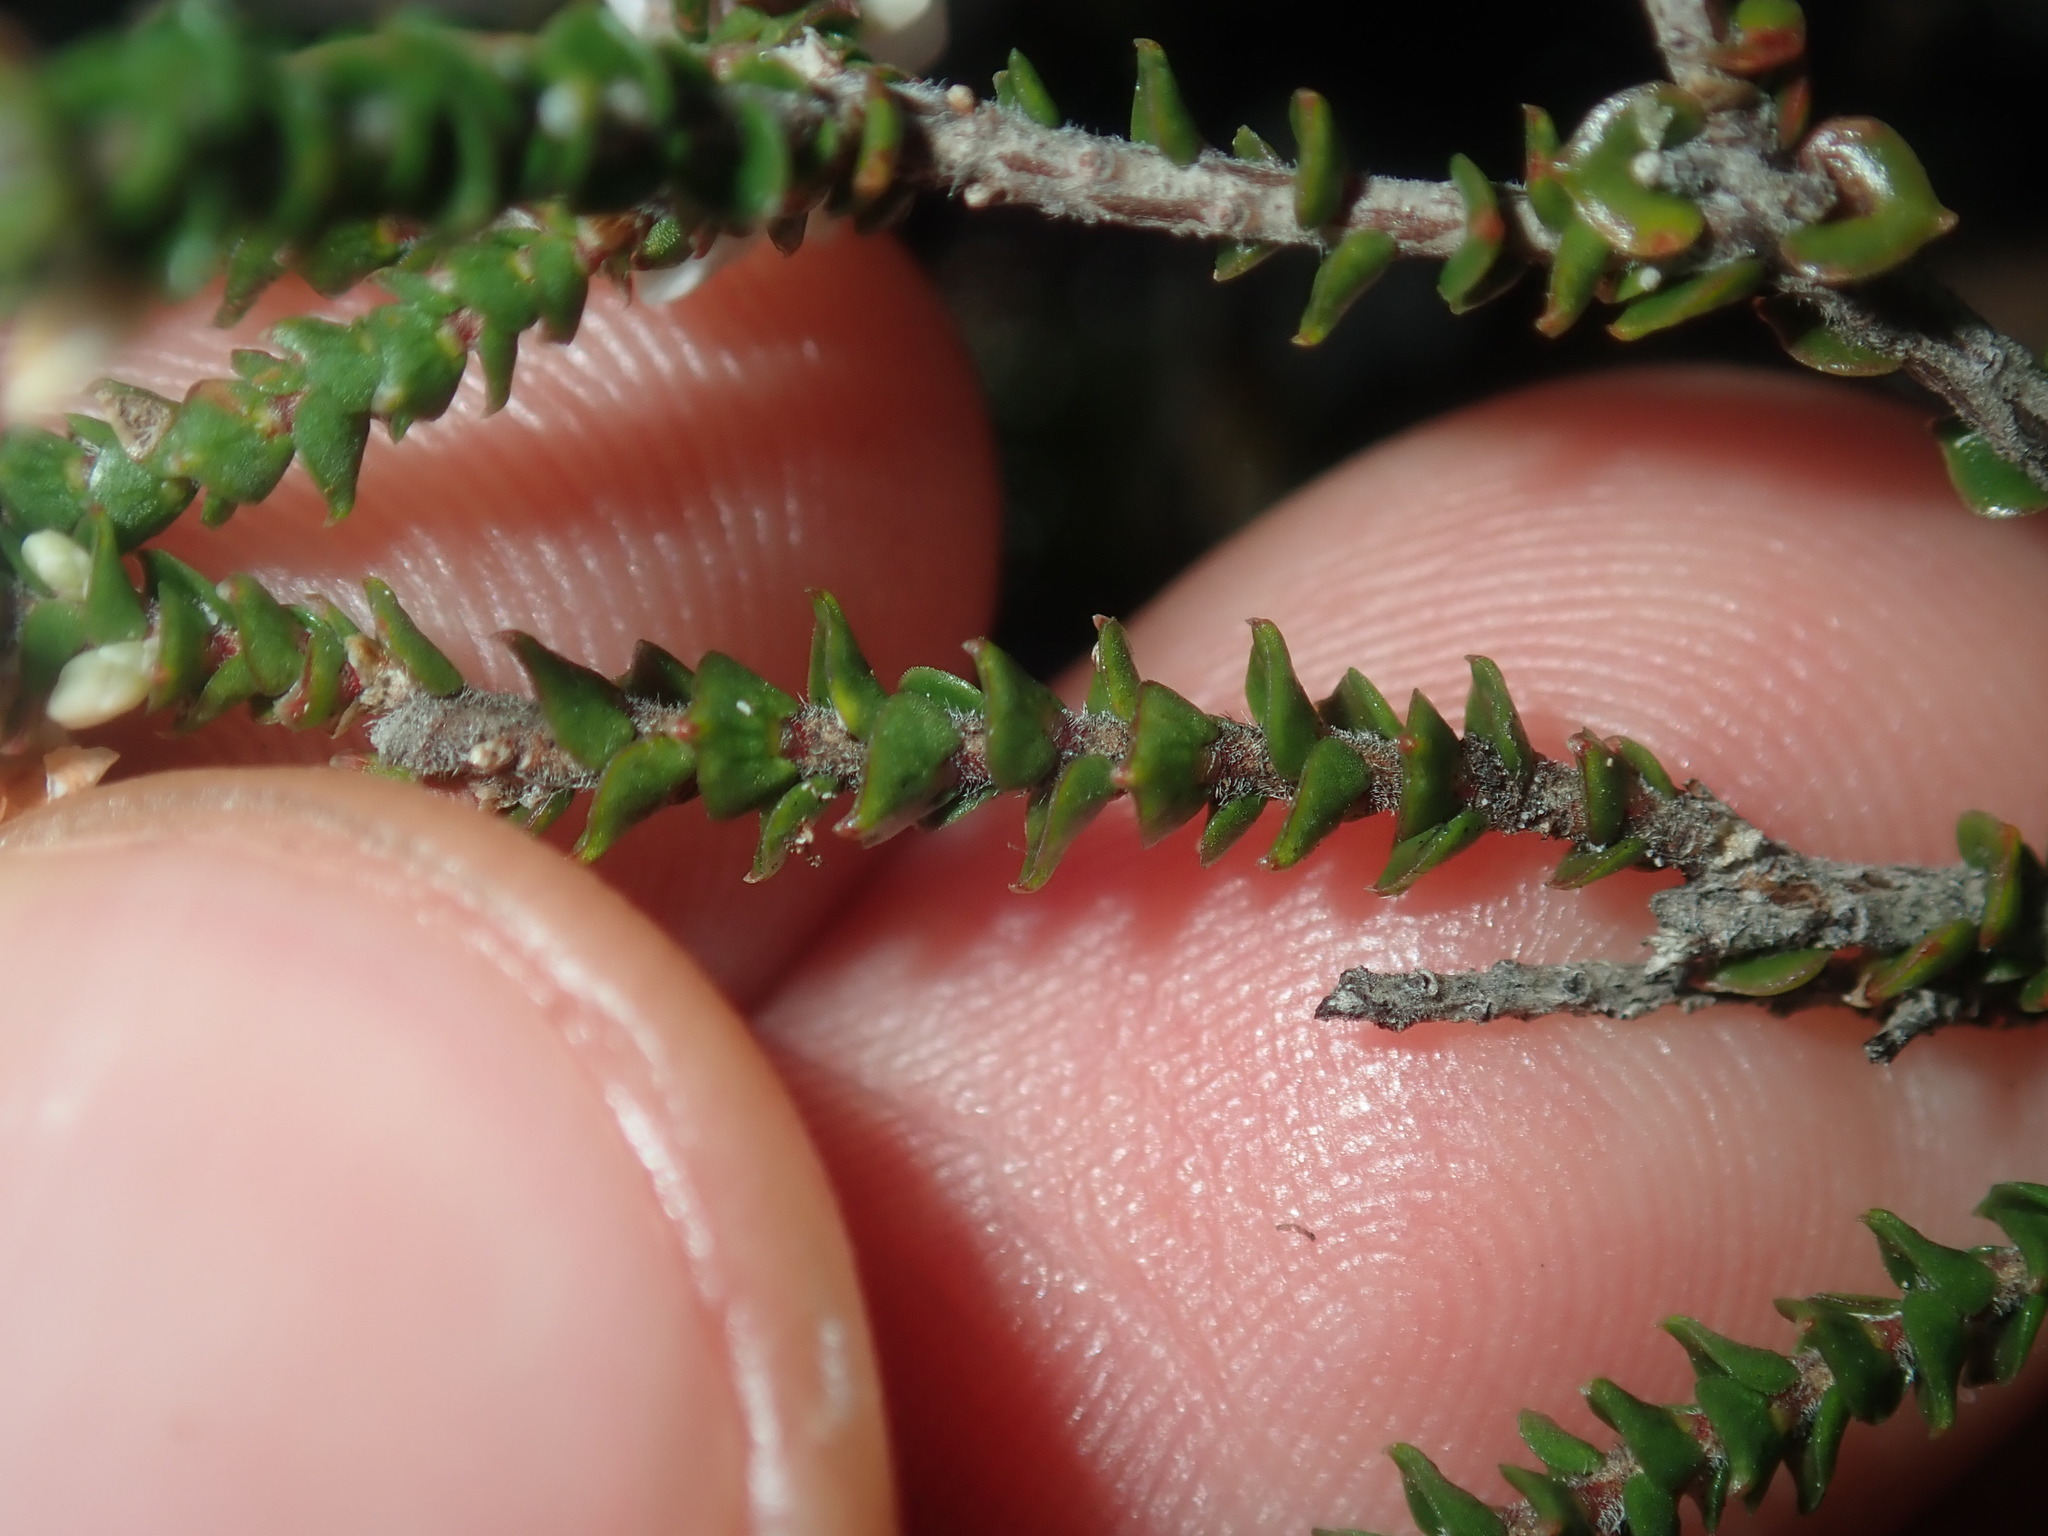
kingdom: Plantae
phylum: Tracheophyta
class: Magnoliopsida
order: Ericales
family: Ericaceae
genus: Epacris
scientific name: Epacris microphylla
